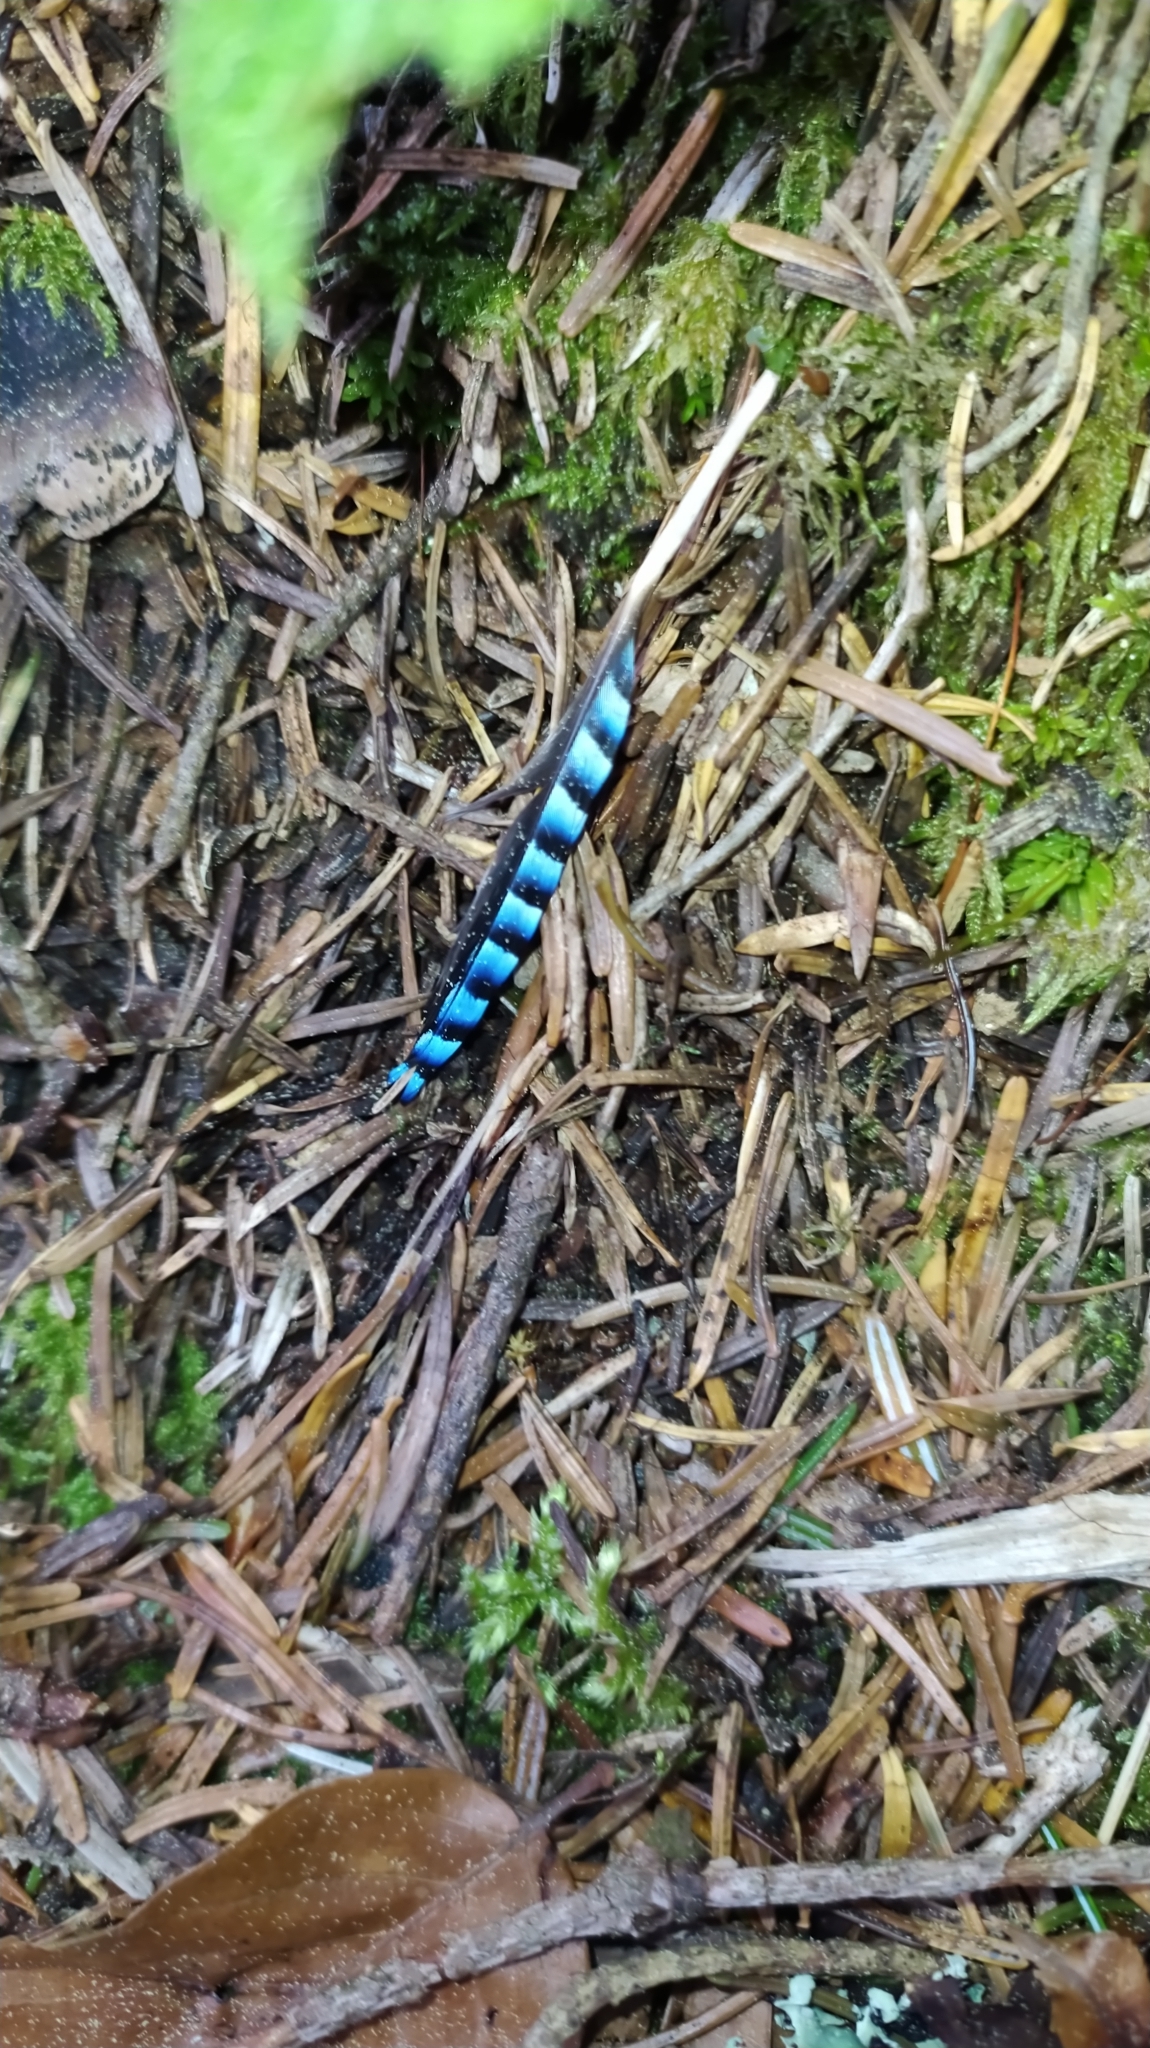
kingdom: Animalia
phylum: Chordata
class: Aves
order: Passeriformes
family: Corvidae
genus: Garrulus
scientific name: Garrulus glandarius
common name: Eurasian jay
